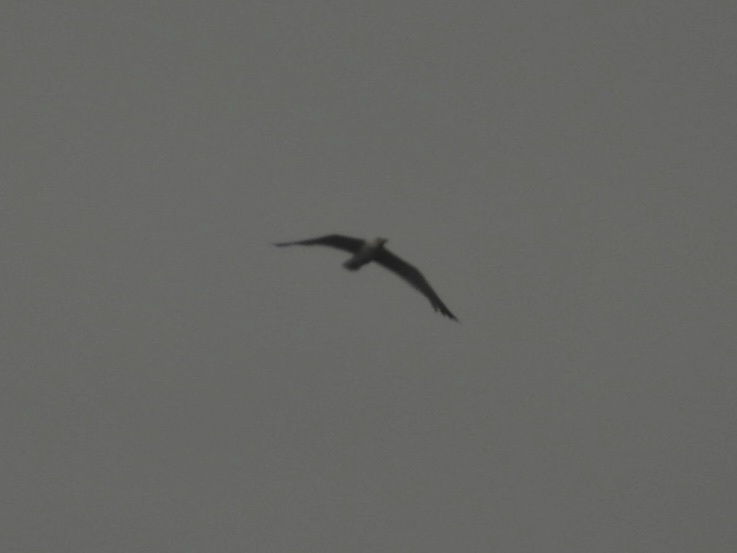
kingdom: Animalia
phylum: Chordata
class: Aves
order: Charadriiformes
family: Laridae
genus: Larus
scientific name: Larus californicus
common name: California gull
